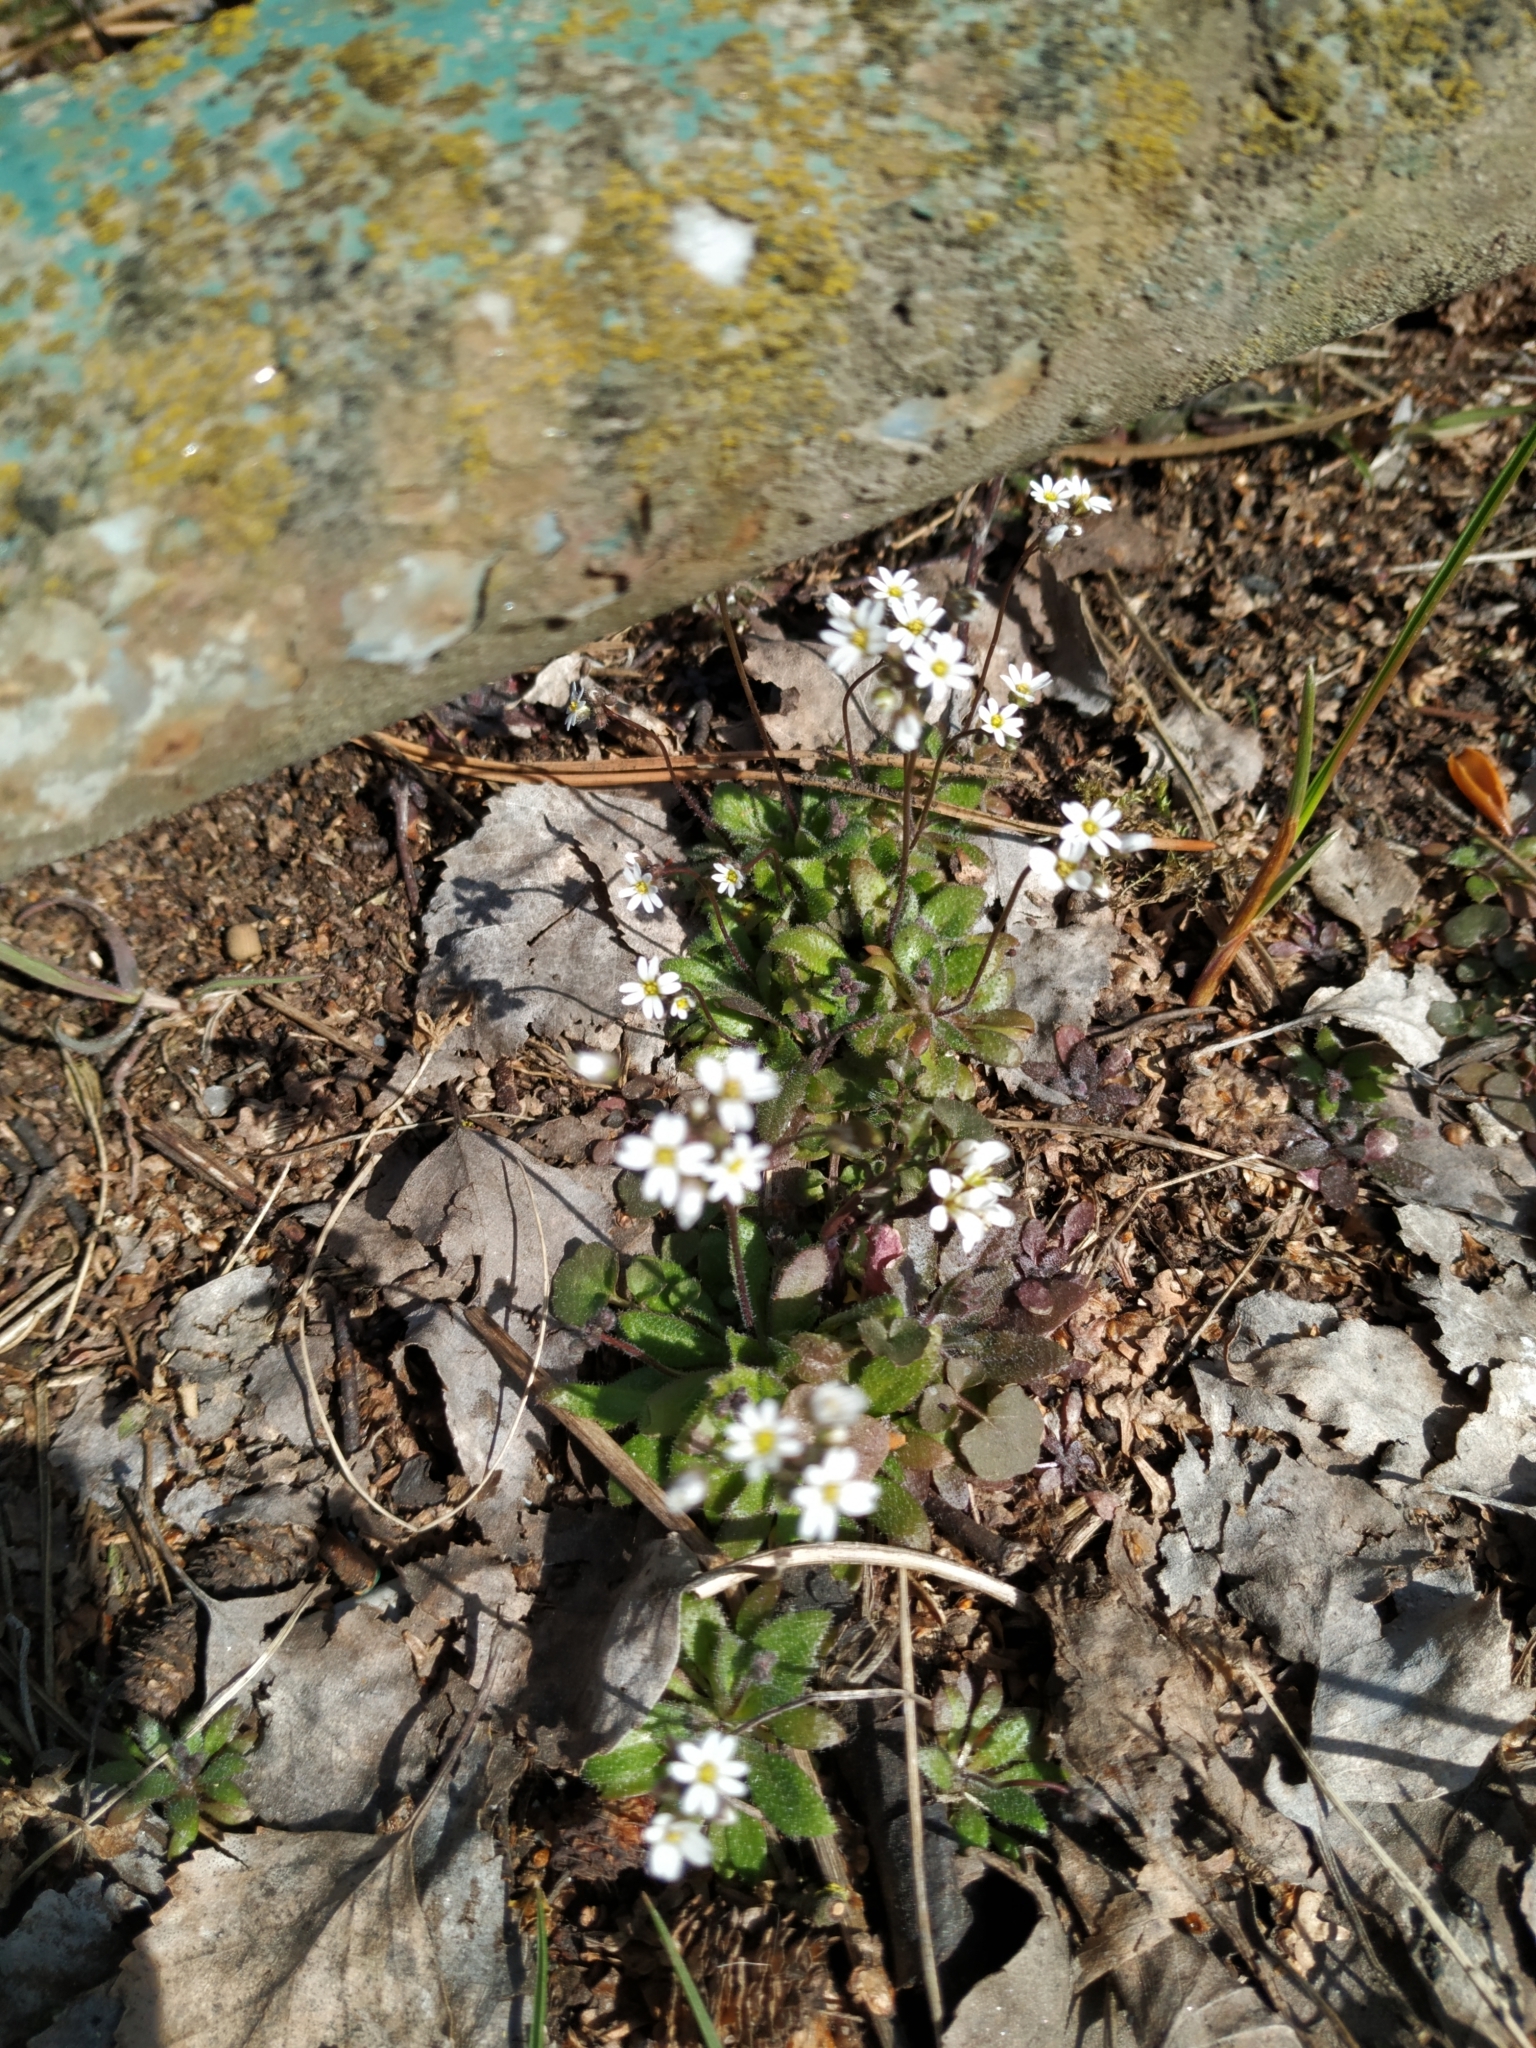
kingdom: Plantae
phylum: Tracheophyta
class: Magnoliopsida
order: Brassicales
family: Brassicaceae
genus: Draba
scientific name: Draba verna
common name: Spring draba
